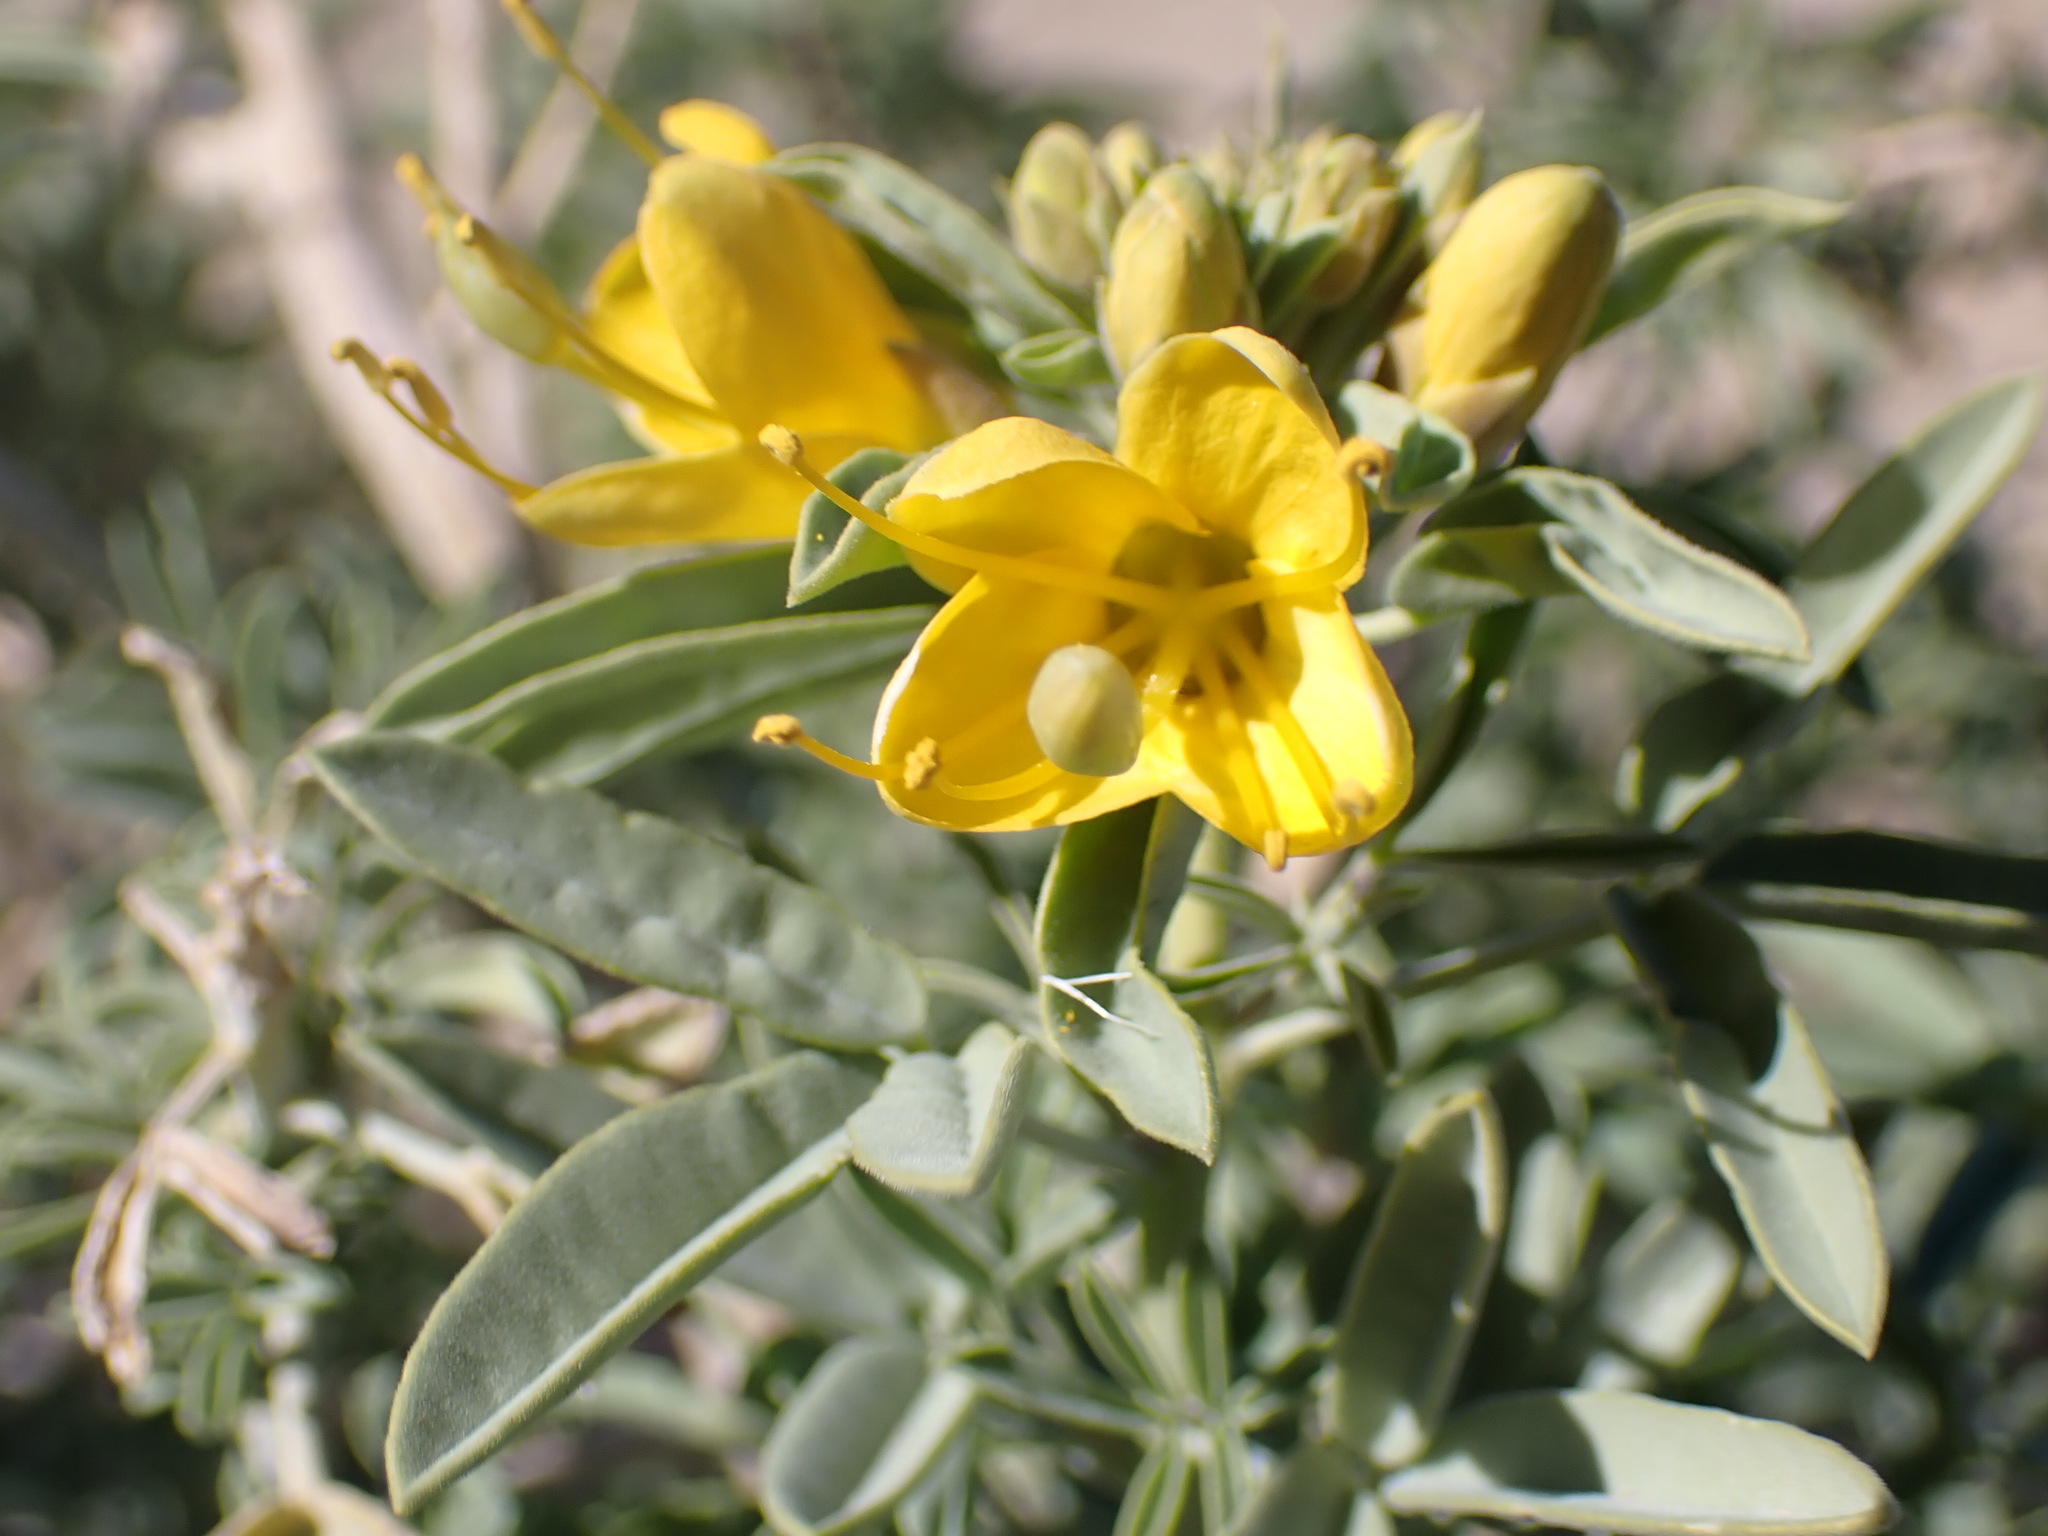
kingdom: Plantae
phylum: Tracheophyta
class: Magnoliopsida
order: Brassicales
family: Cleomaceae
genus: Cleomella
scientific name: Cleomella arborea
